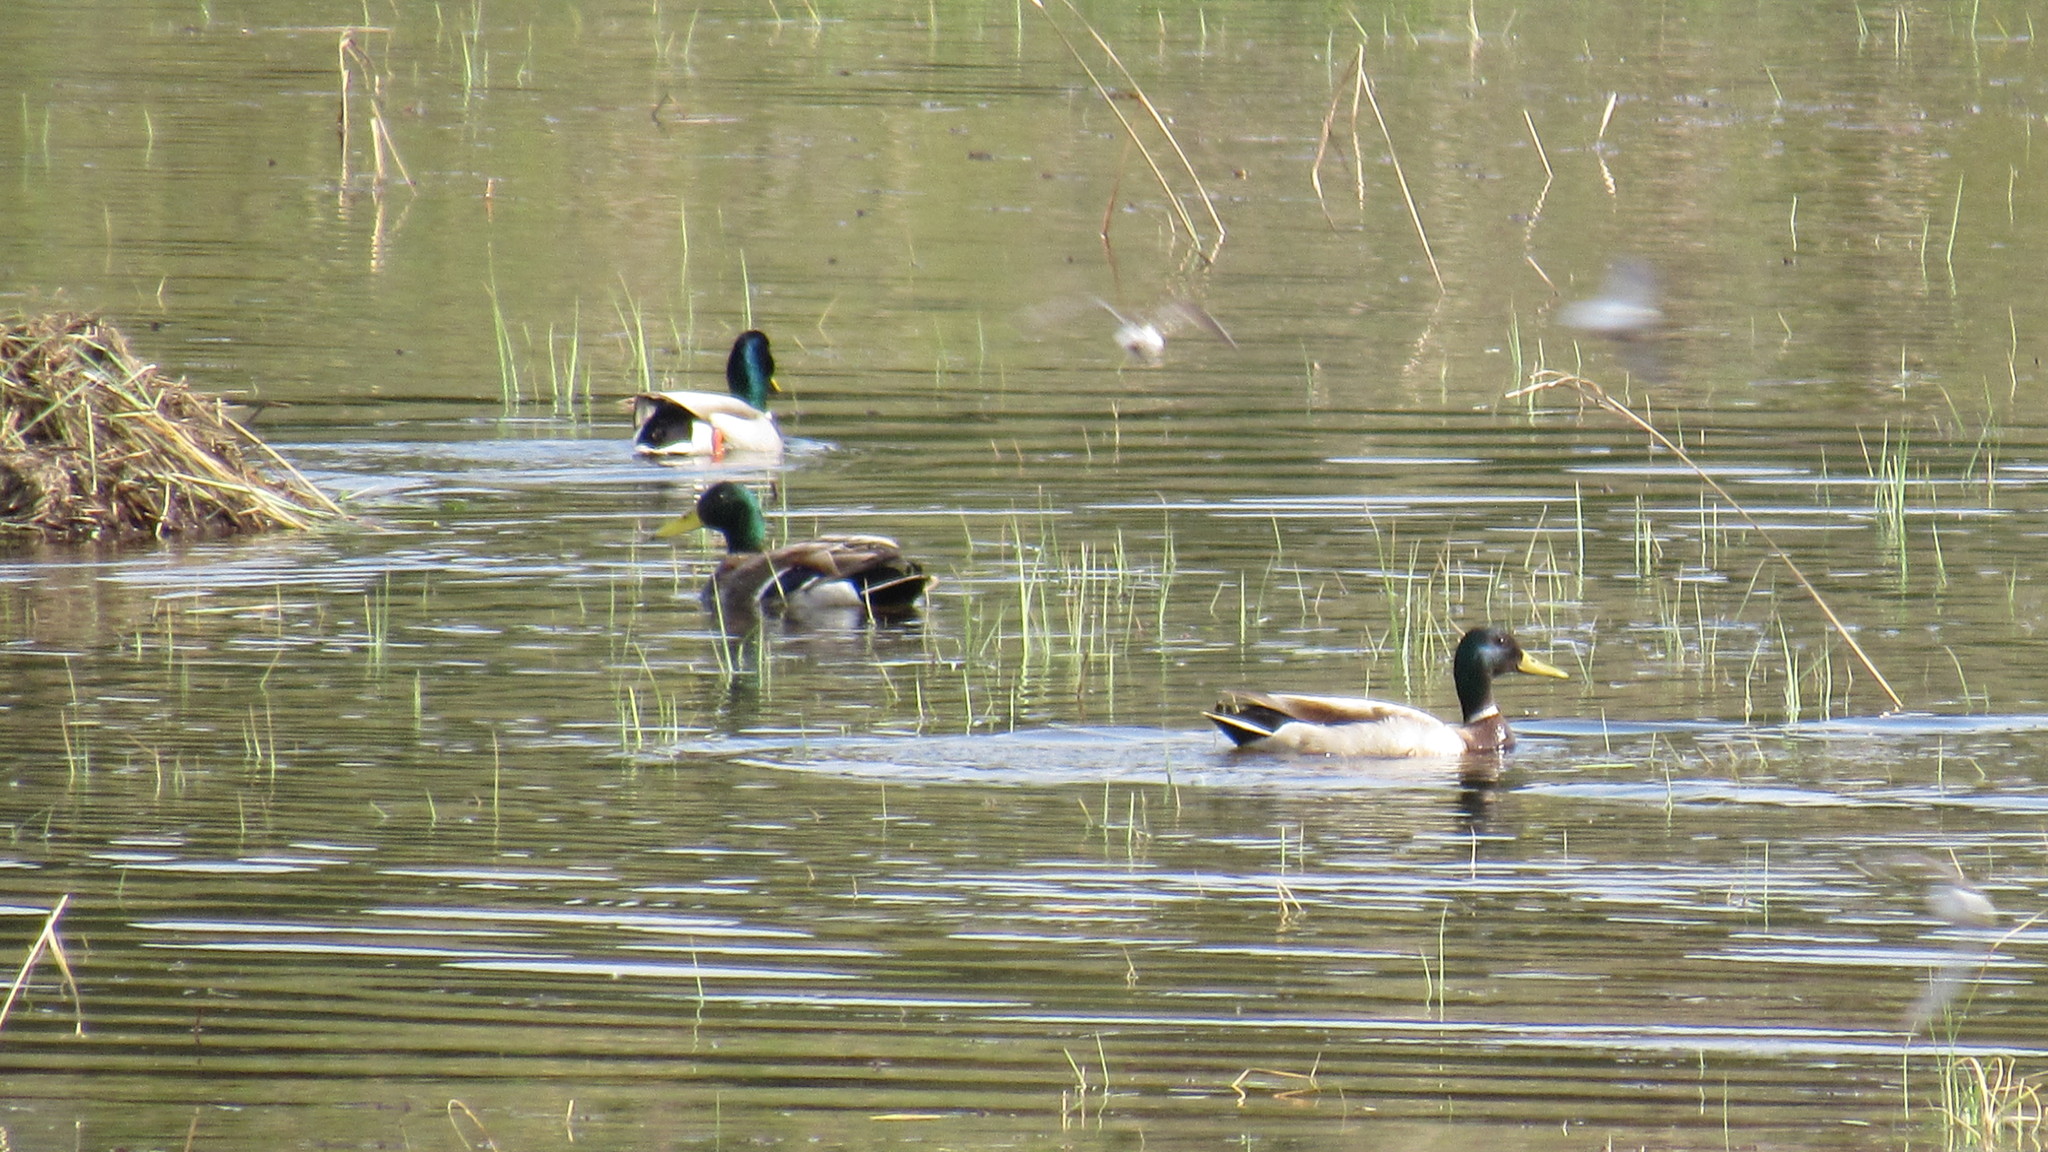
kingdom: Animalia
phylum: Chordata
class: Aves
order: Anseriformes
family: Anatidae
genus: Anas
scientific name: Anas platyrhynchos
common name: Mallard
